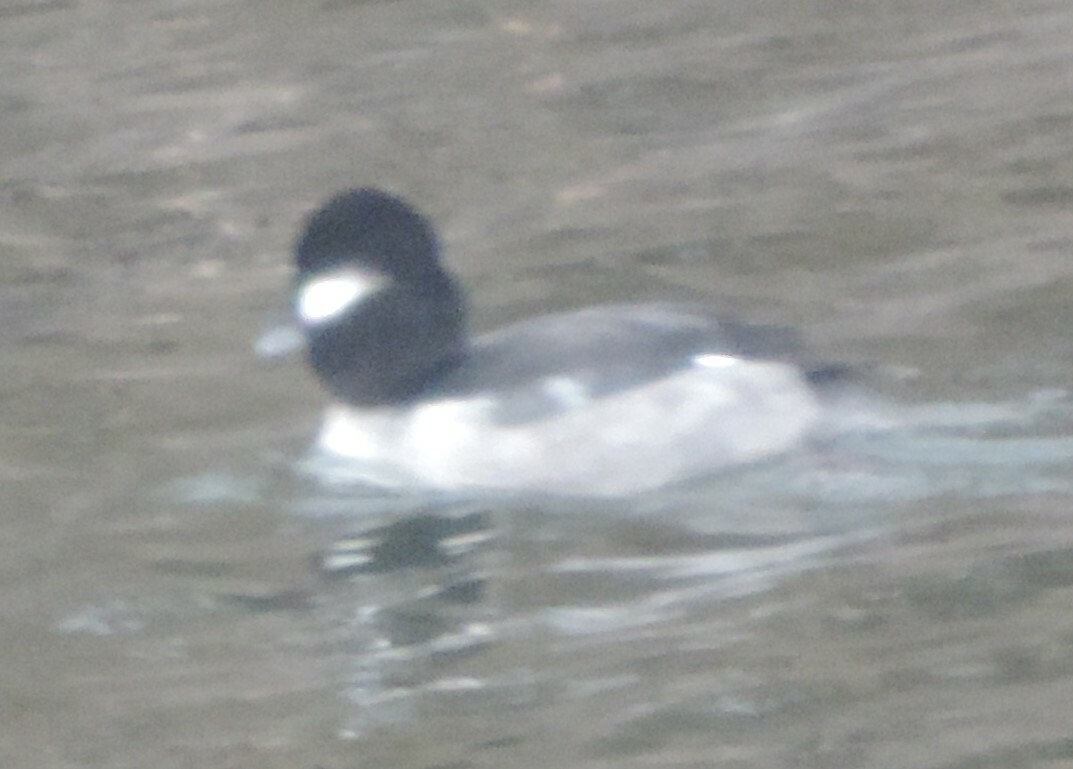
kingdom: Animalia
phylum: Chordata
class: Aves
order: Anseriformes
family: Anatidae
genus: Bucephala
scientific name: Bucephala albeola
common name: Bufflehead
